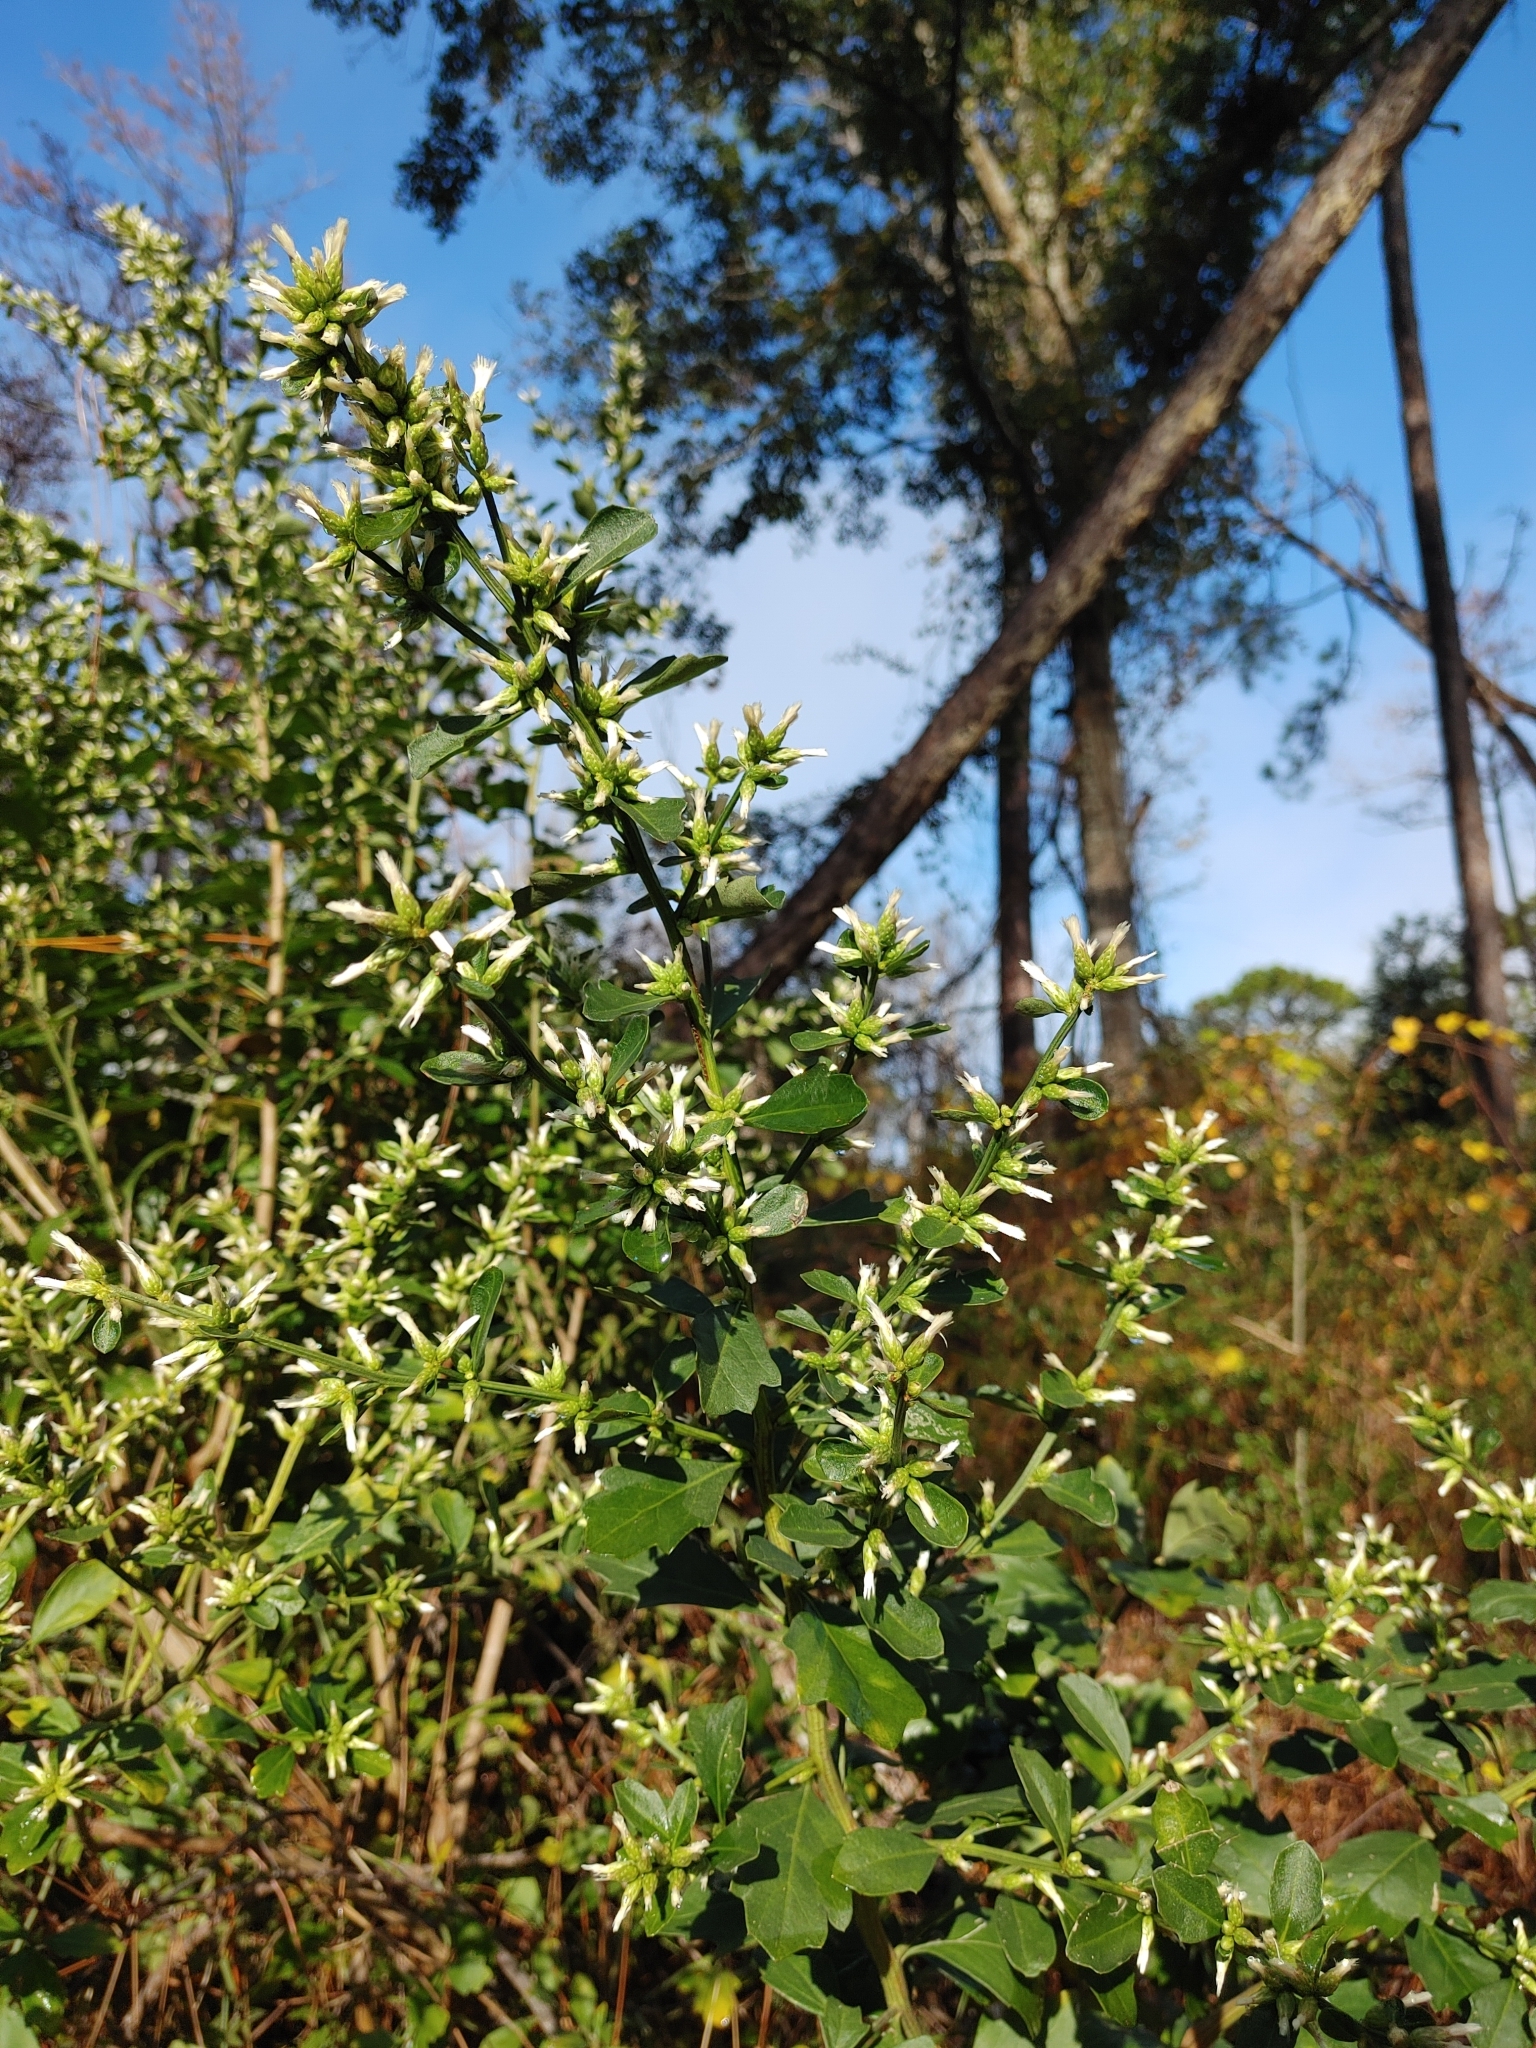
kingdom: Plantae
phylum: Tracheophyta
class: Magnoliopsida
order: Asterales
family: Asteraceae
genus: Baccharis
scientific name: Baccharis glomeruliflora
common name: Silverling groundsel bush
